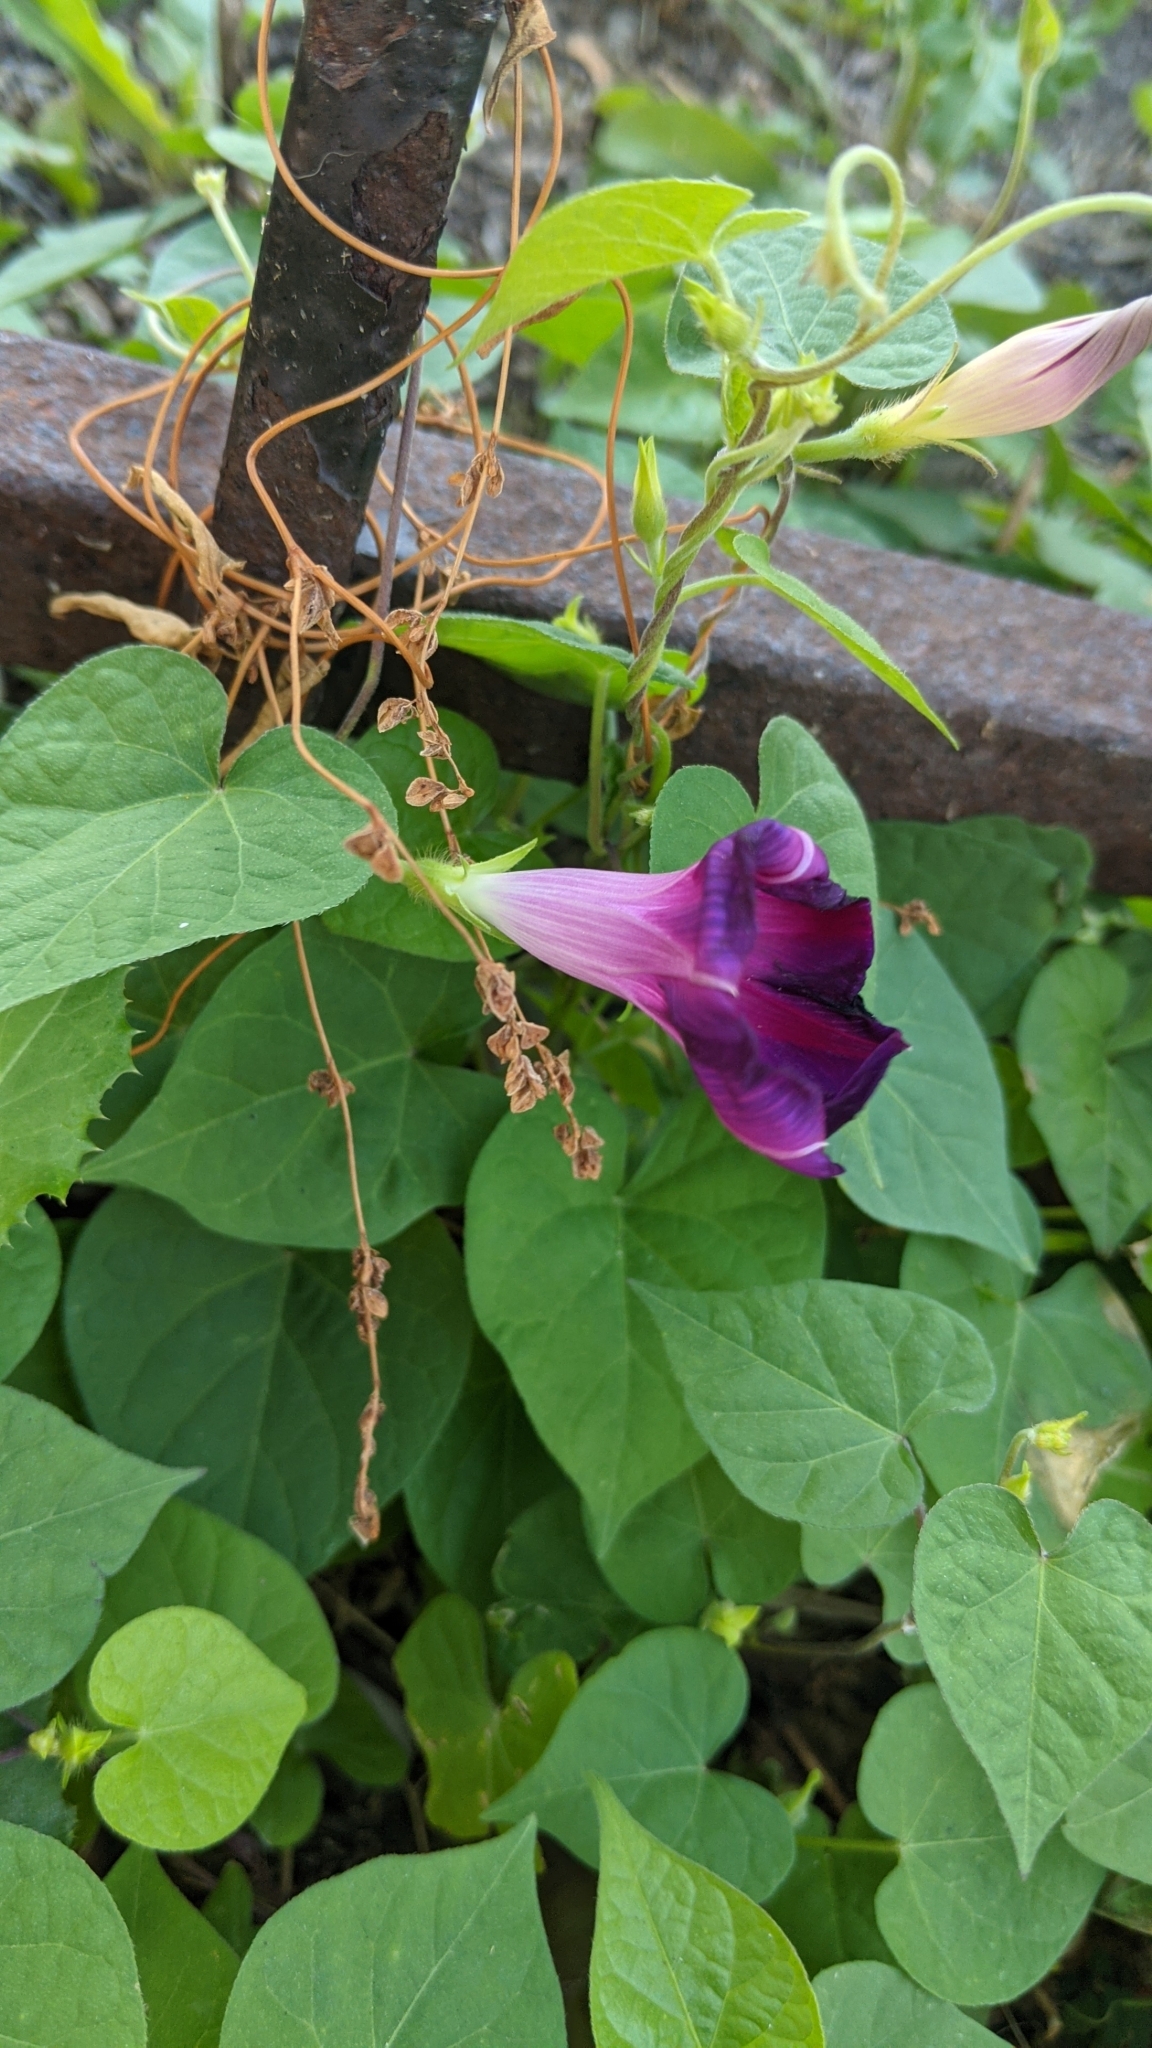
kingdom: Plantae
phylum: Tracheophyta
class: Magnoliopsida
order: Solanales
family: Convolvulaceae
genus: Ipomoea
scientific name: Ipomoea purpurea
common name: Common morning-glory
